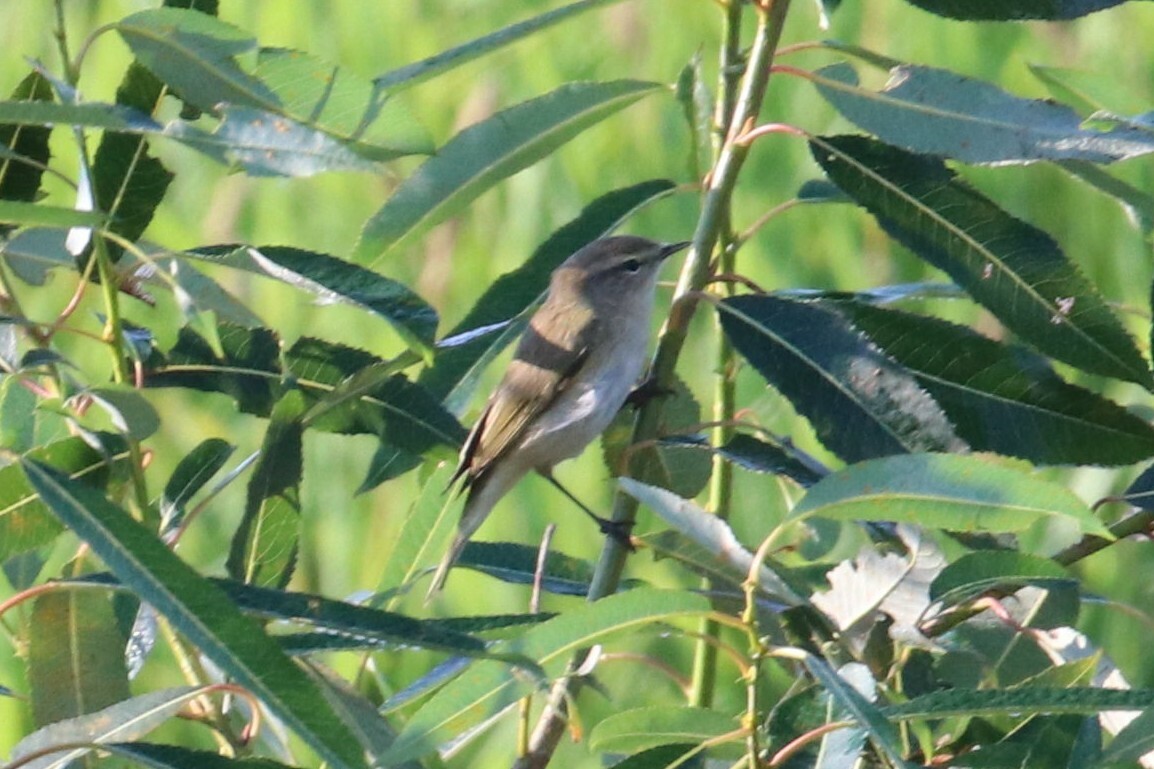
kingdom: Animalia
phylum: Chordata
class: Aves
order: Passeriformes
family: Phylloscopidae
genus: Phylloscopus
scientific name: Phylloscopus collybita
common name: Common chiffchaff
